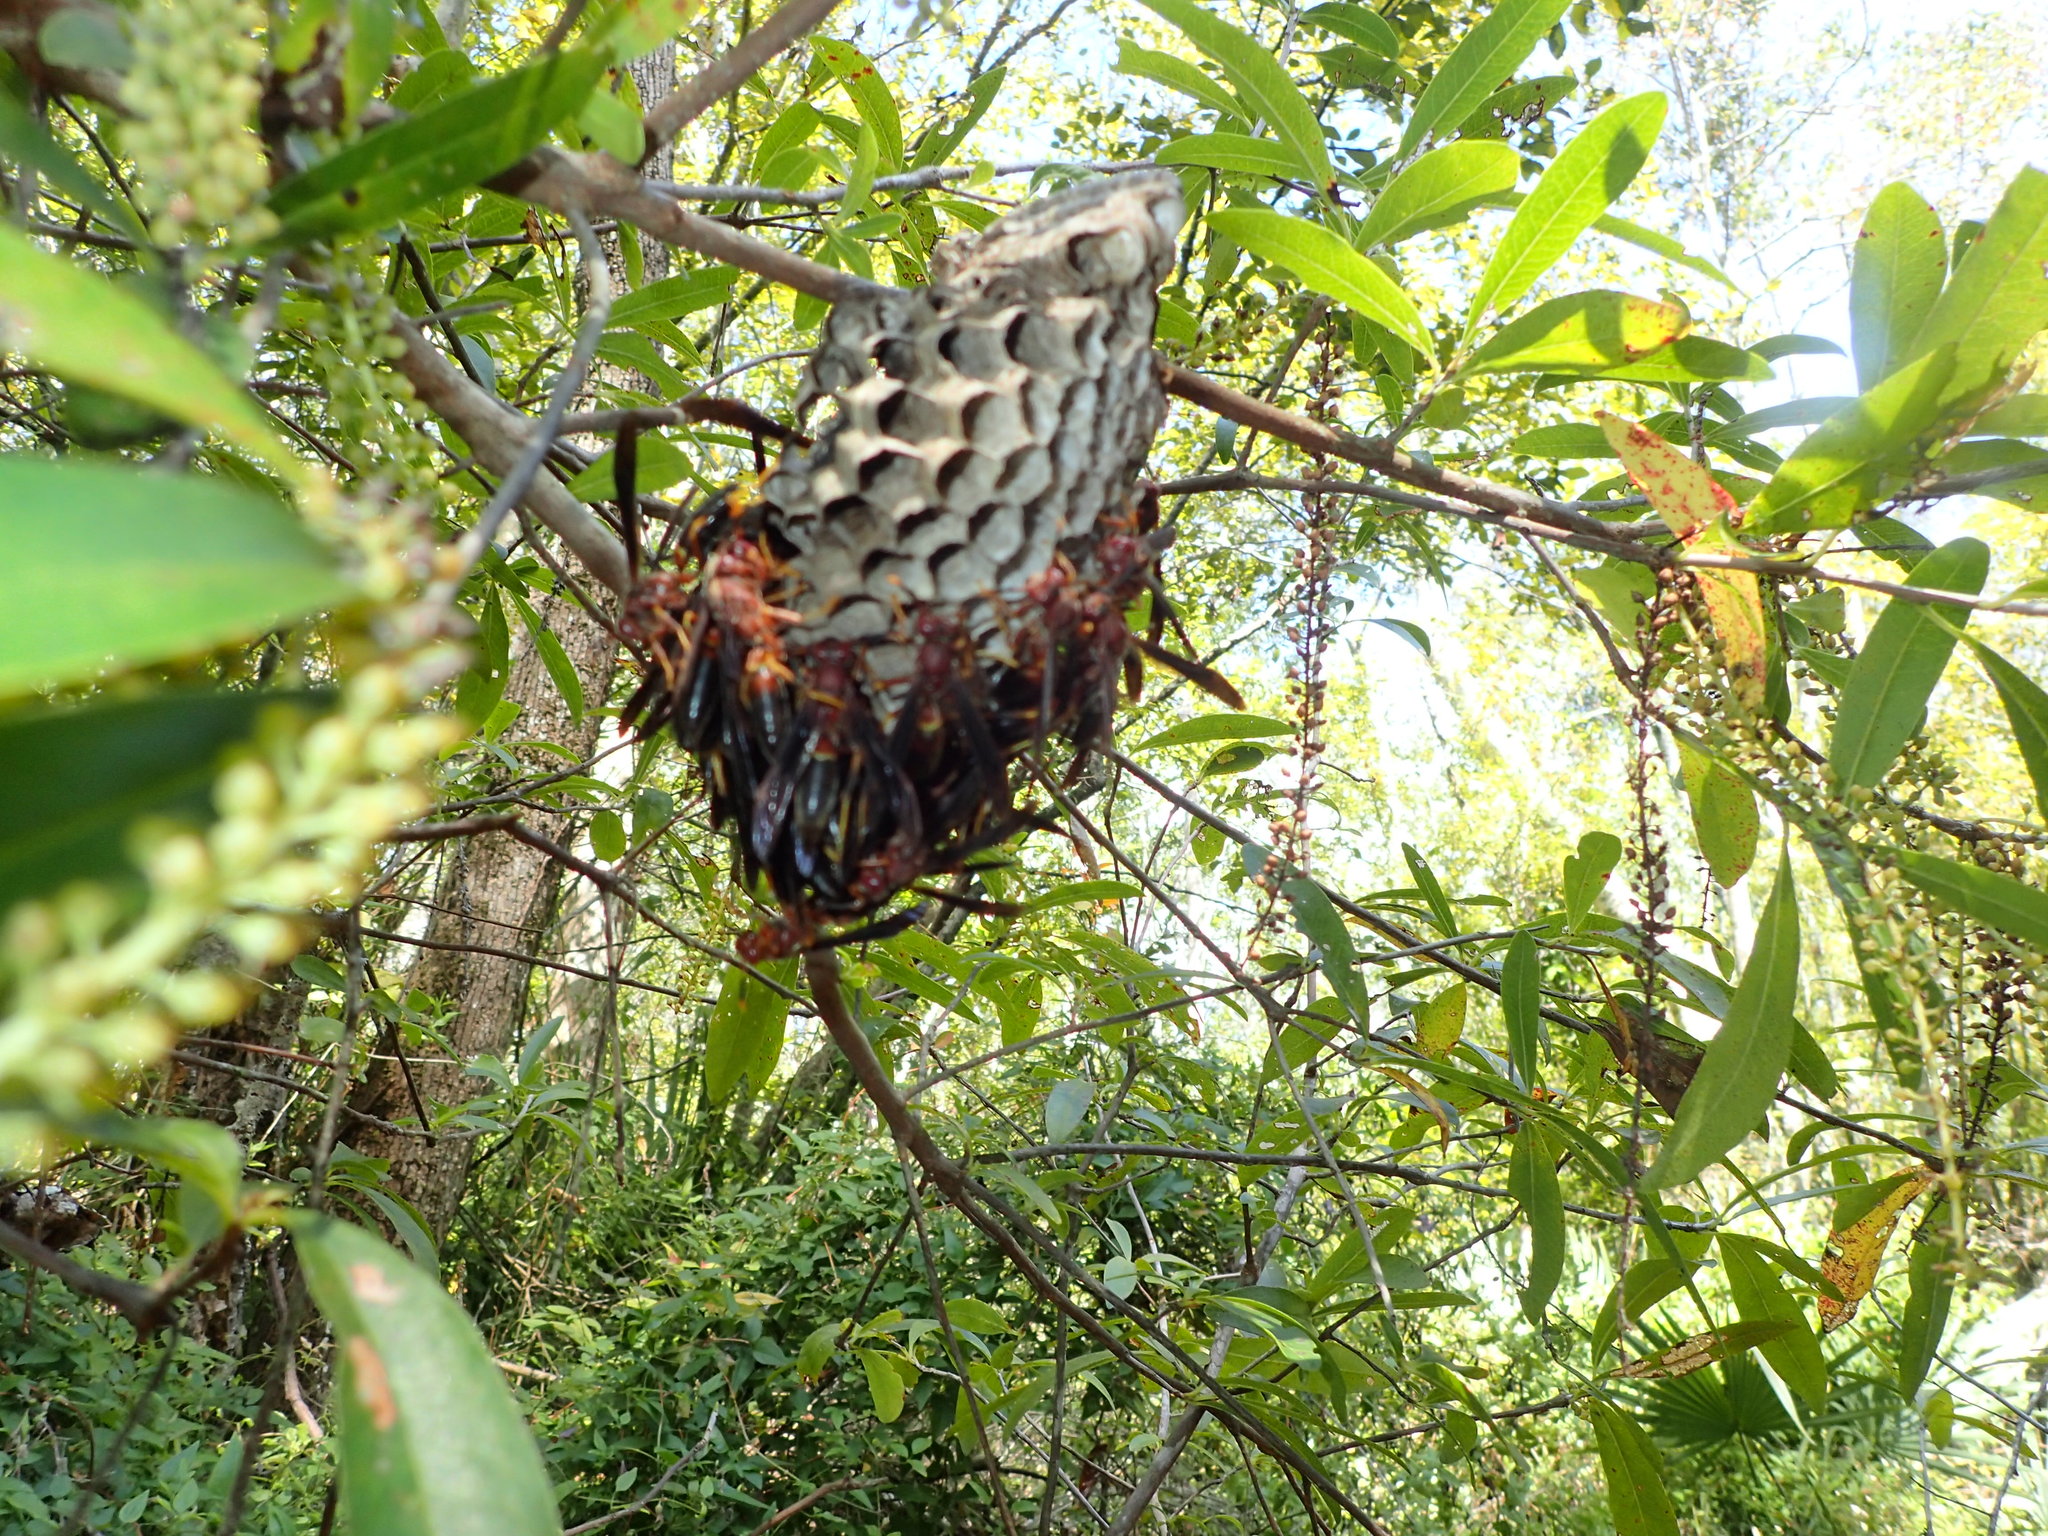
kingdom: Animalia
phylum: Arthropoda
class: Insecta
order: Hymenoptera
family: Eumenidae
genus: Polistes
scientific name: Polistes annularis
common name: Ringed paper wasp
